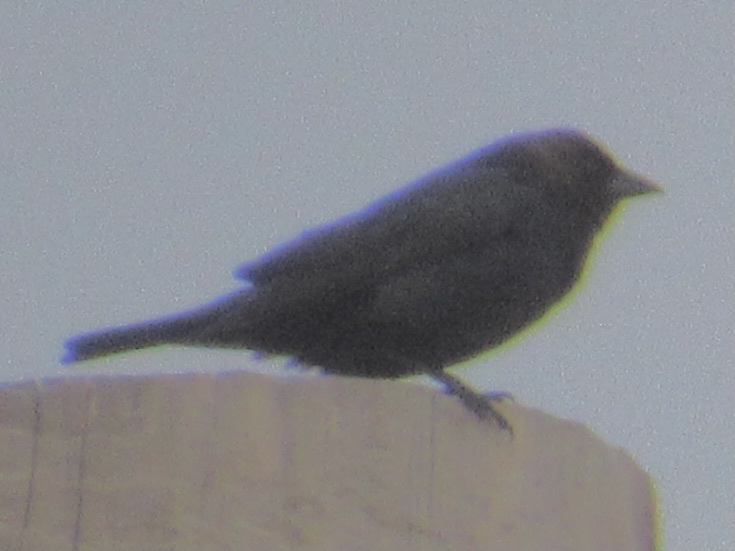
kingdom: Animalia
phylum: Chordata
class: Aves
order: Passeriformes
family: Icteridae
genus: Molothrus
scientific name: Molothrus ater
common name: Brown-headed cowbird
